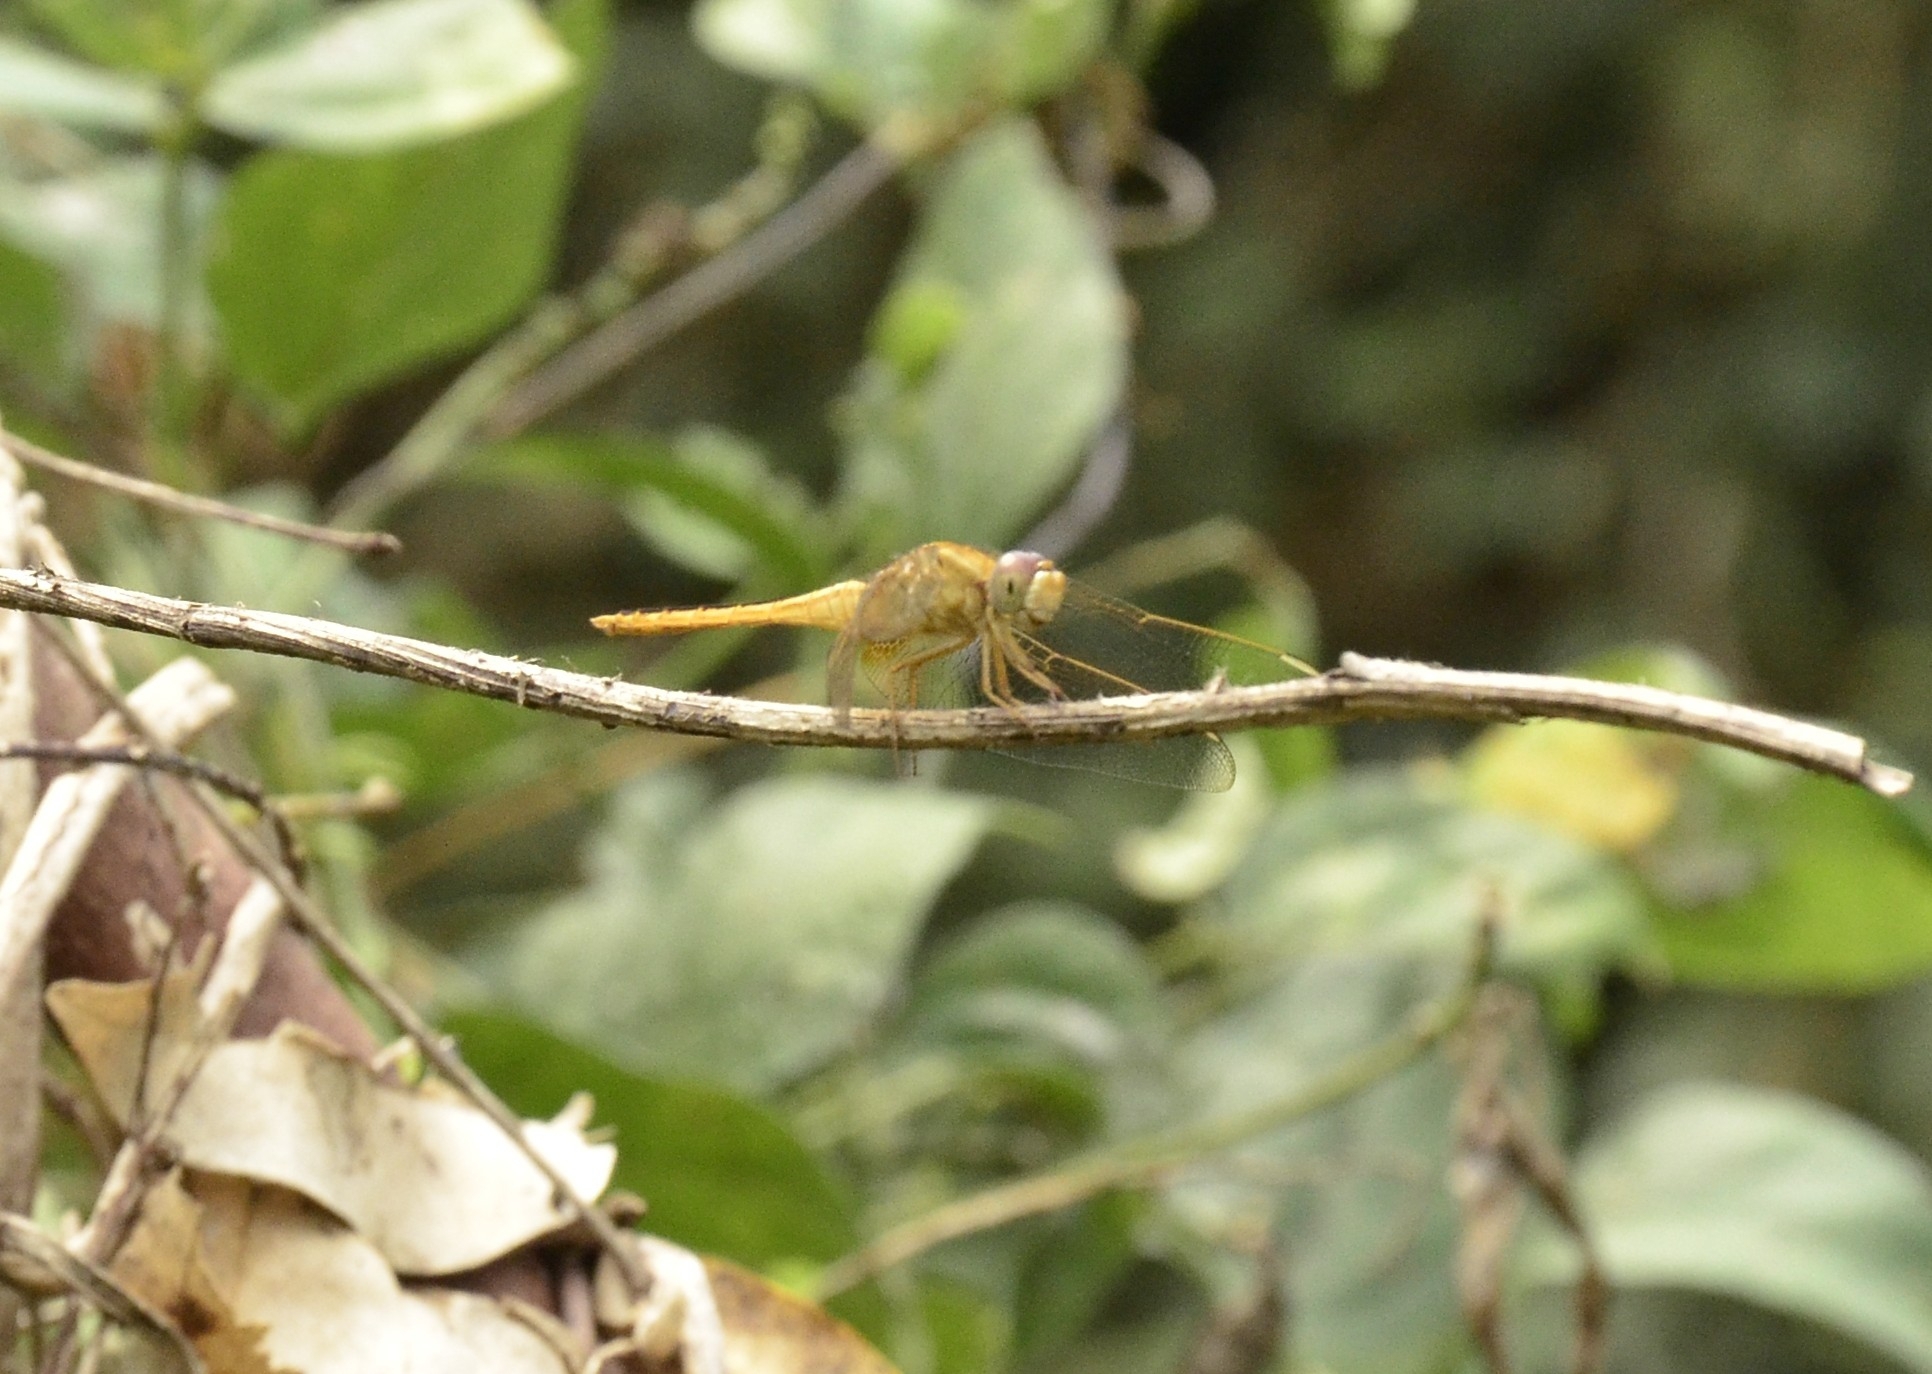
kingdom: Animalia
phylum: Arthropoda
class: Insecta
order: Odonata
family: Libellulidae
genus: Crocothemis
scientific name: Crocothemis servilia
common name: Scarlet skimmer
